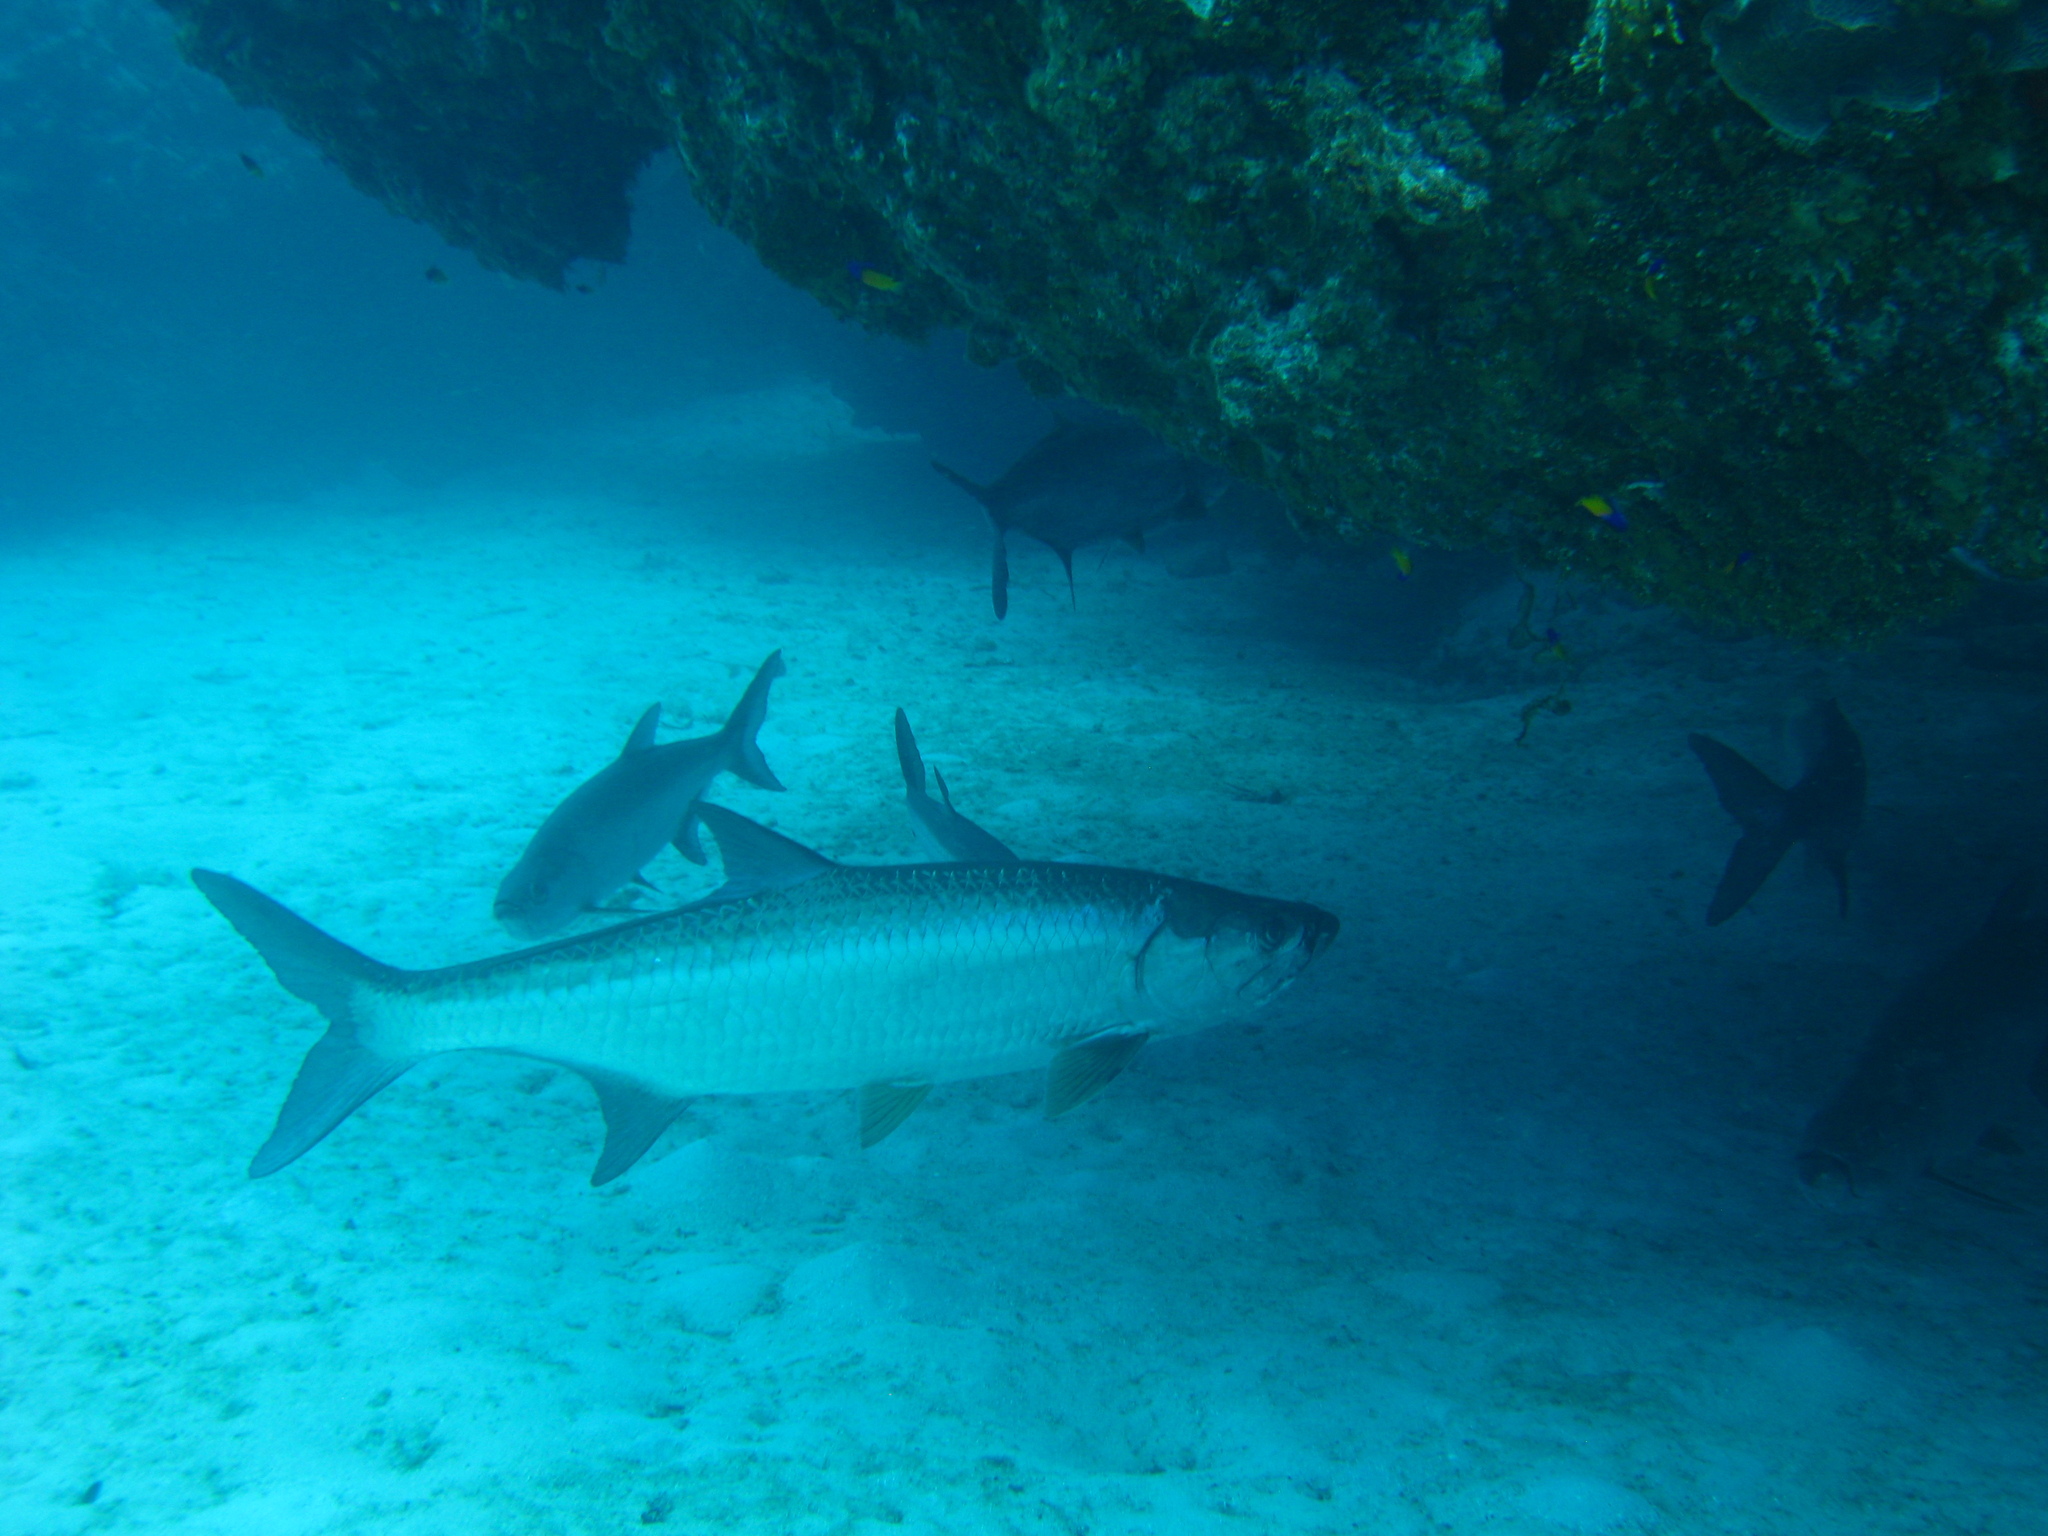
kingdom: Animalia
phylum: Chordata
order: Elopiformes
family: Megalopidae
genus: Megalops
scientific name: Megalops atlanticus
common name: Tarpon
